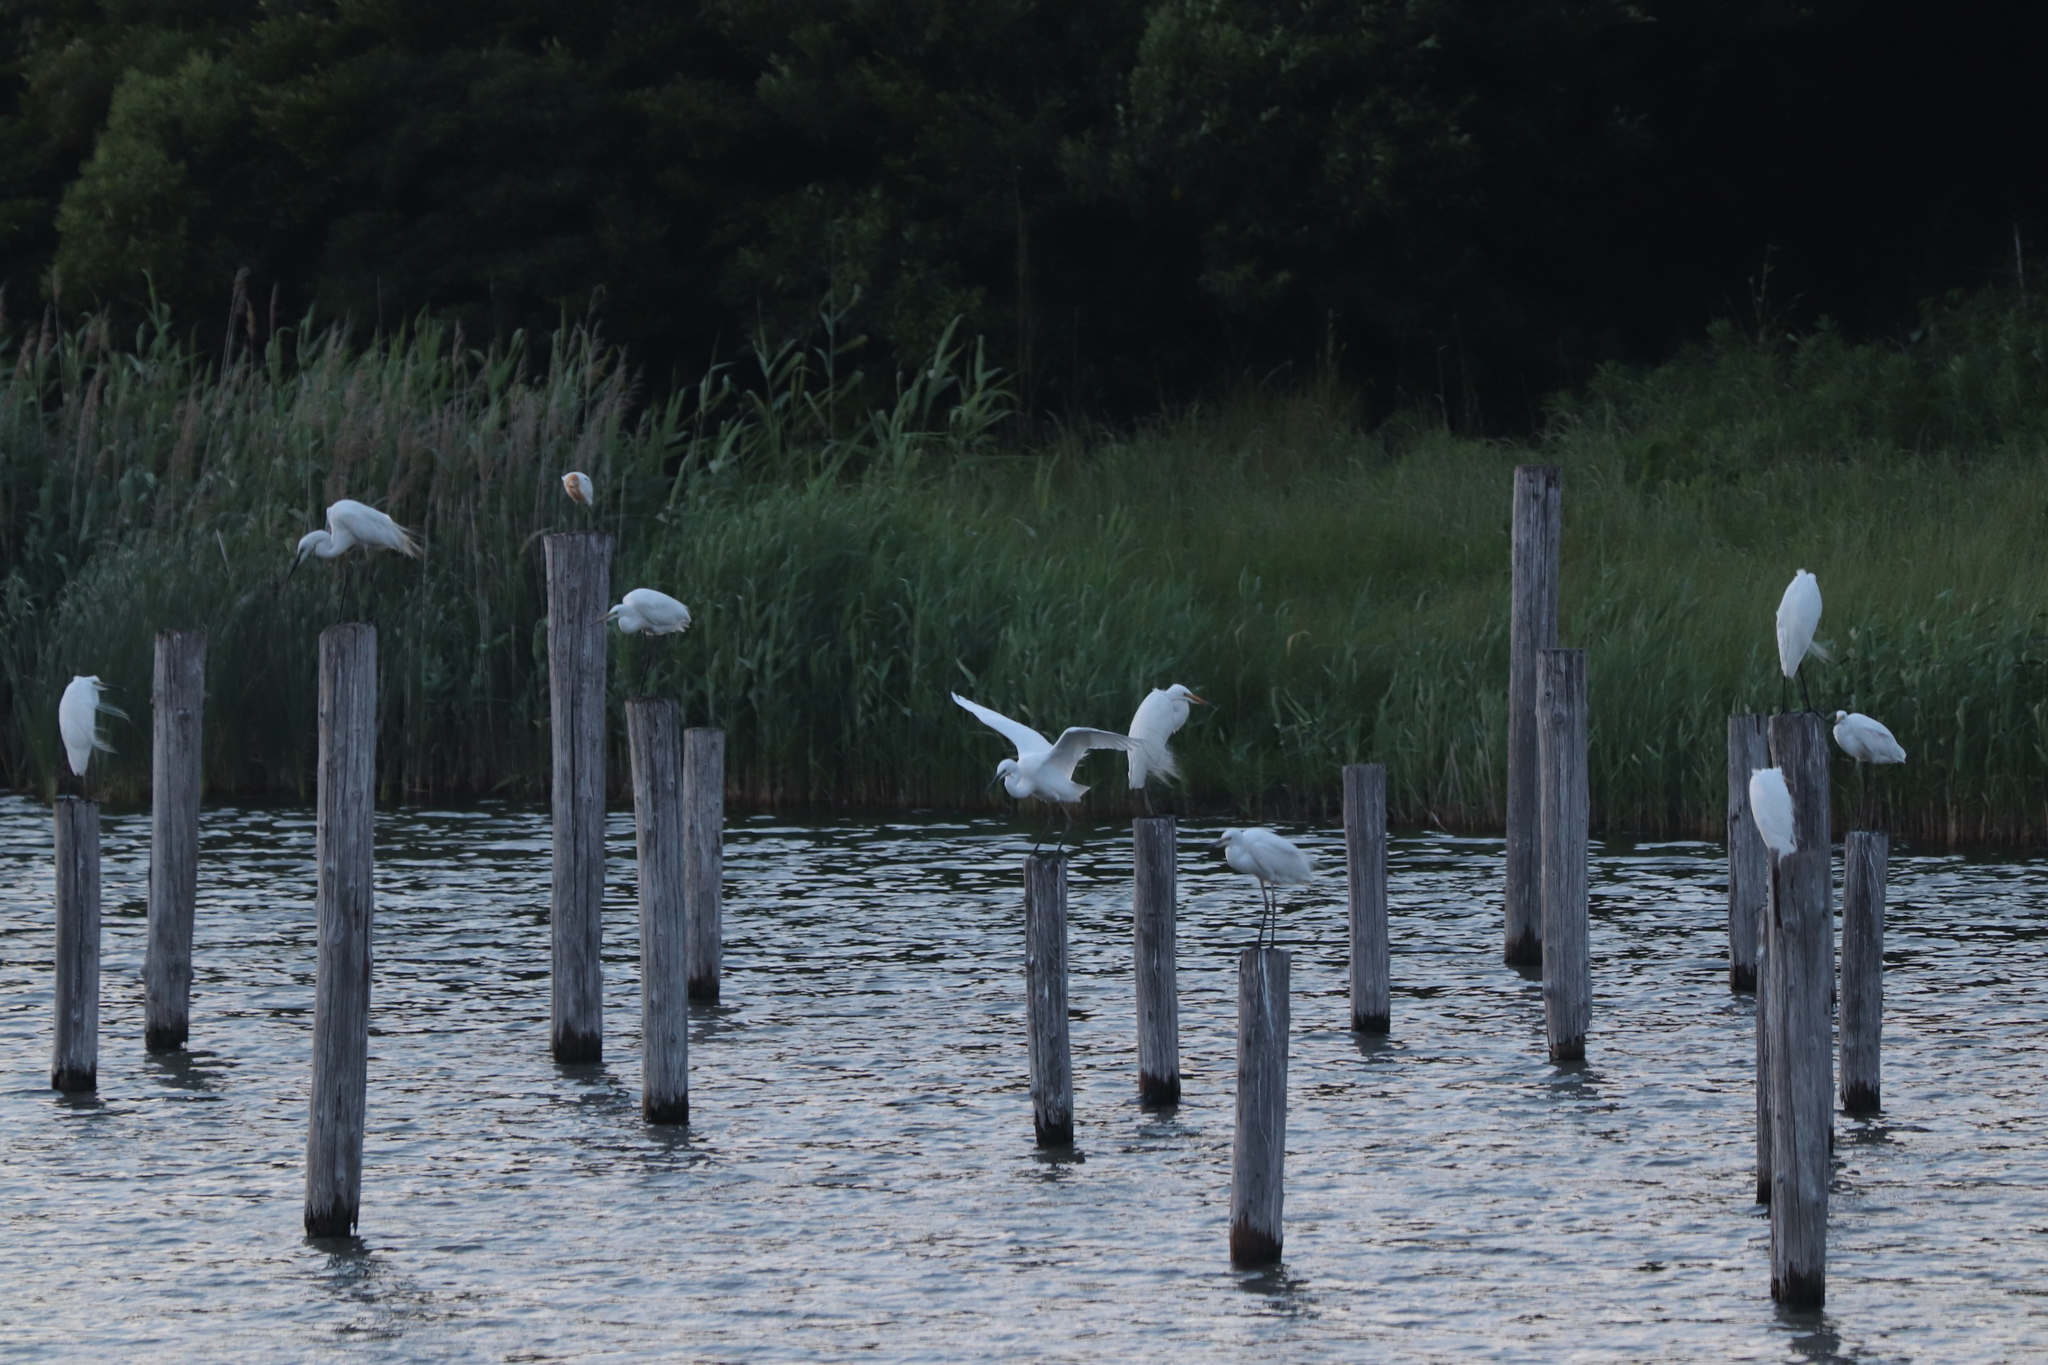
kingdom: Animalia
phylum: Chordata
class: Aves
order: Pelecaniformes
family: Ardeidae
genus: Ardea
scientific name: Ardea alba
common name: Great egret
